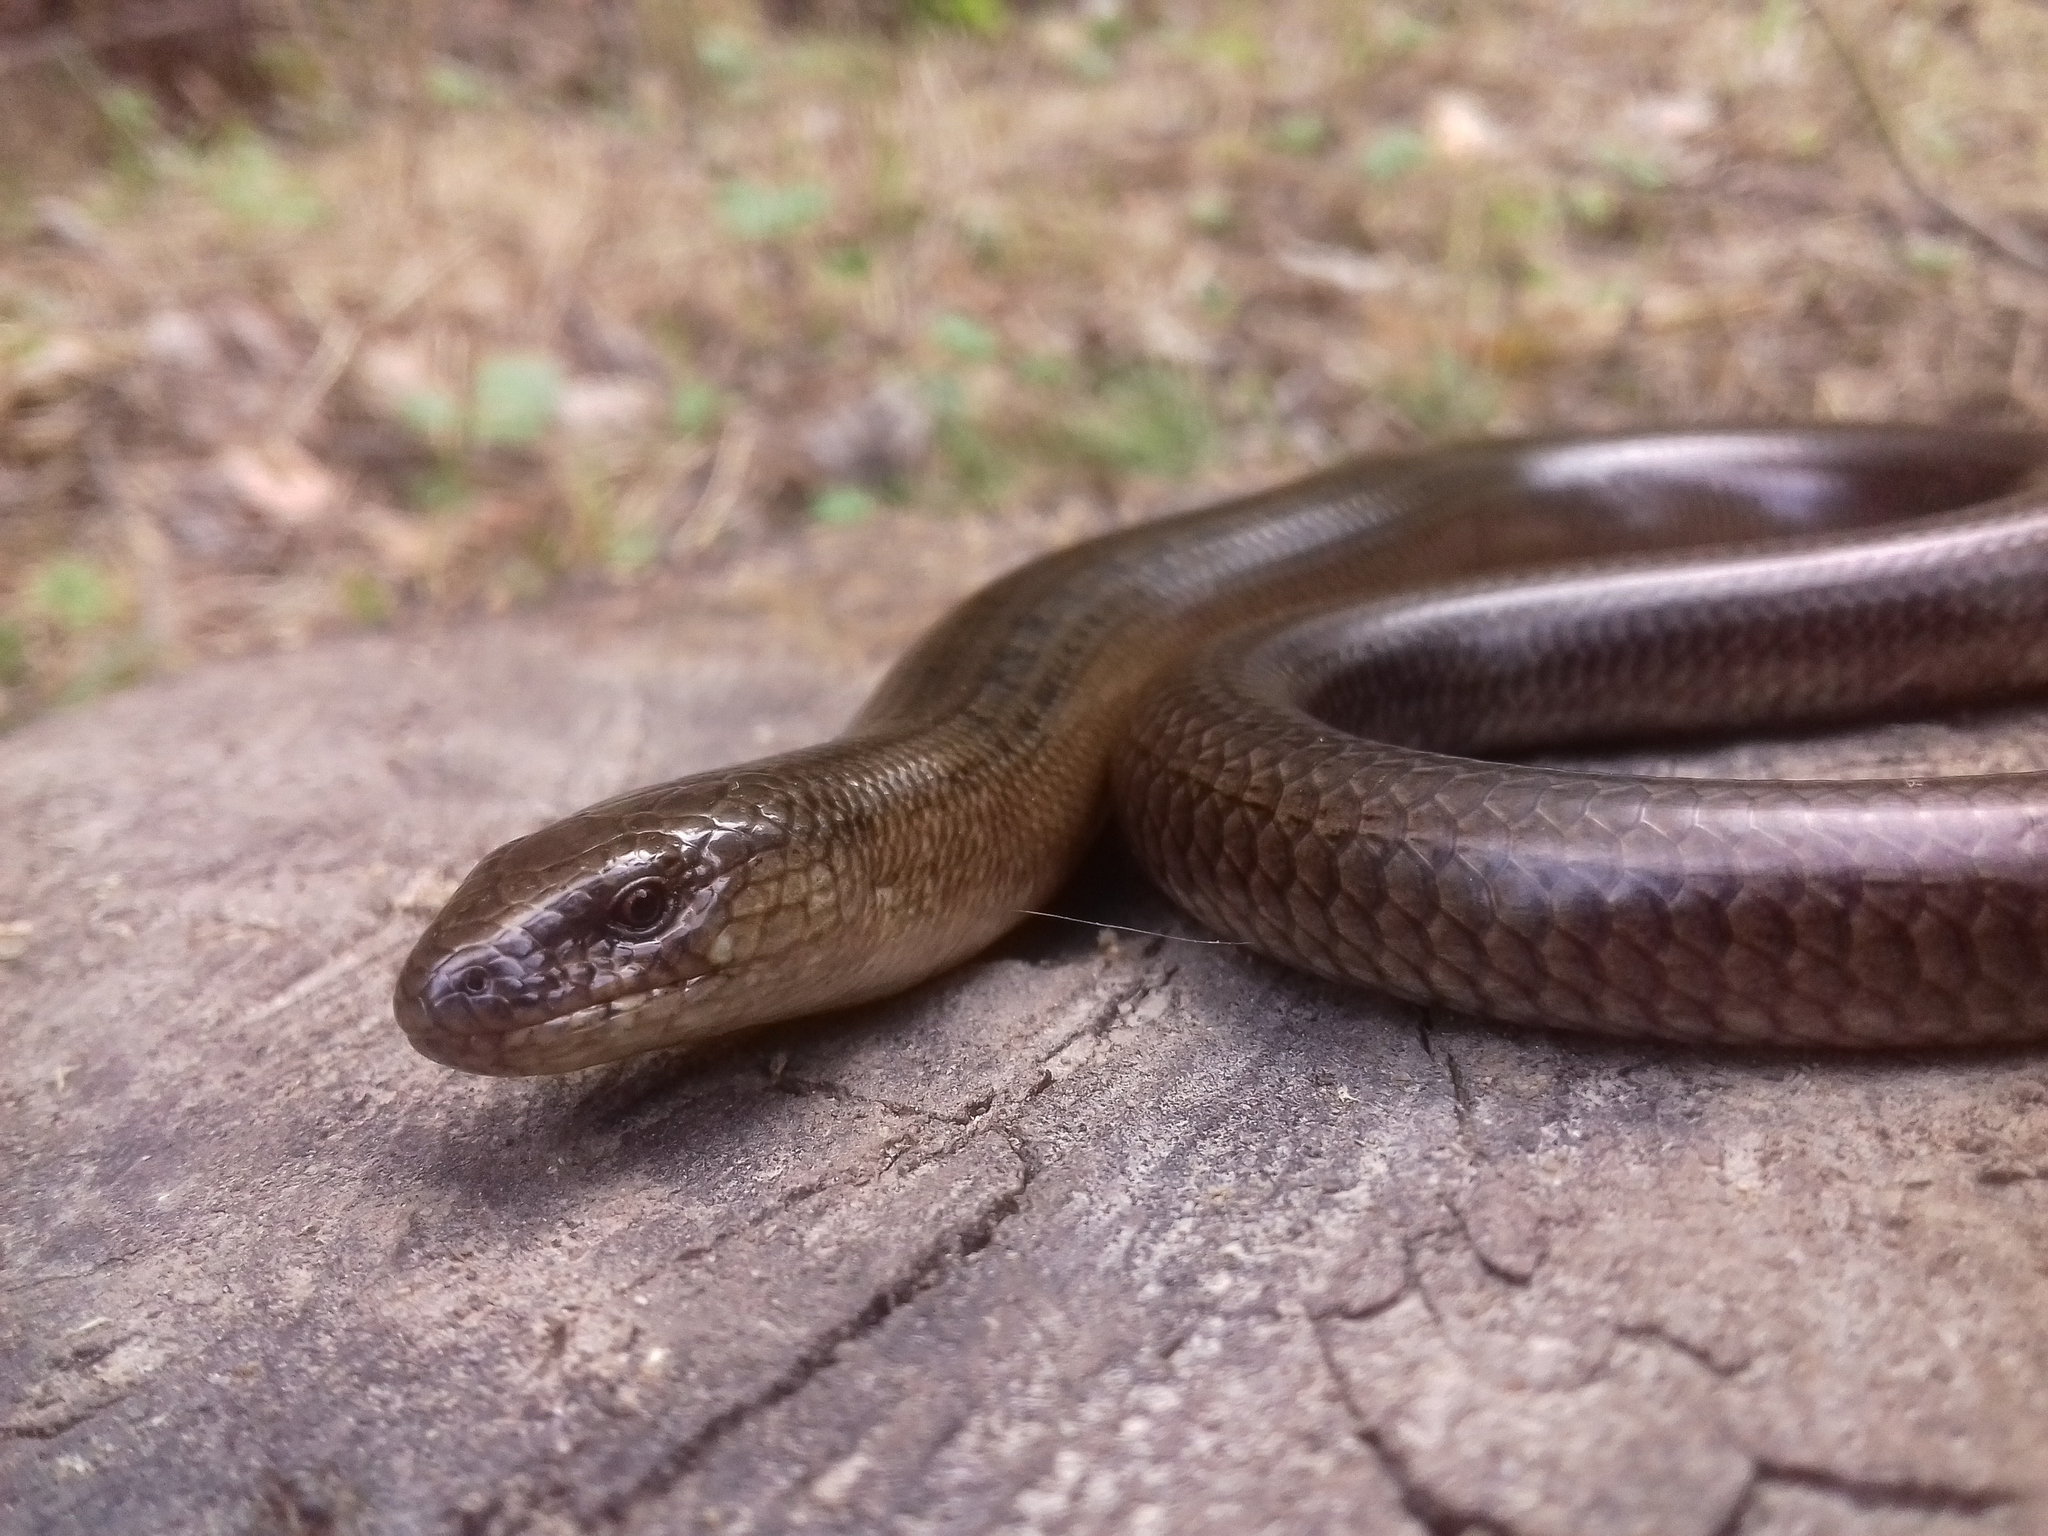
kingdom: Animalia
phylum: Chordata
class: Squamata
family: Anguidae
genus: Anguis
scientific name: Anguis colchica
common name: Slow worm
